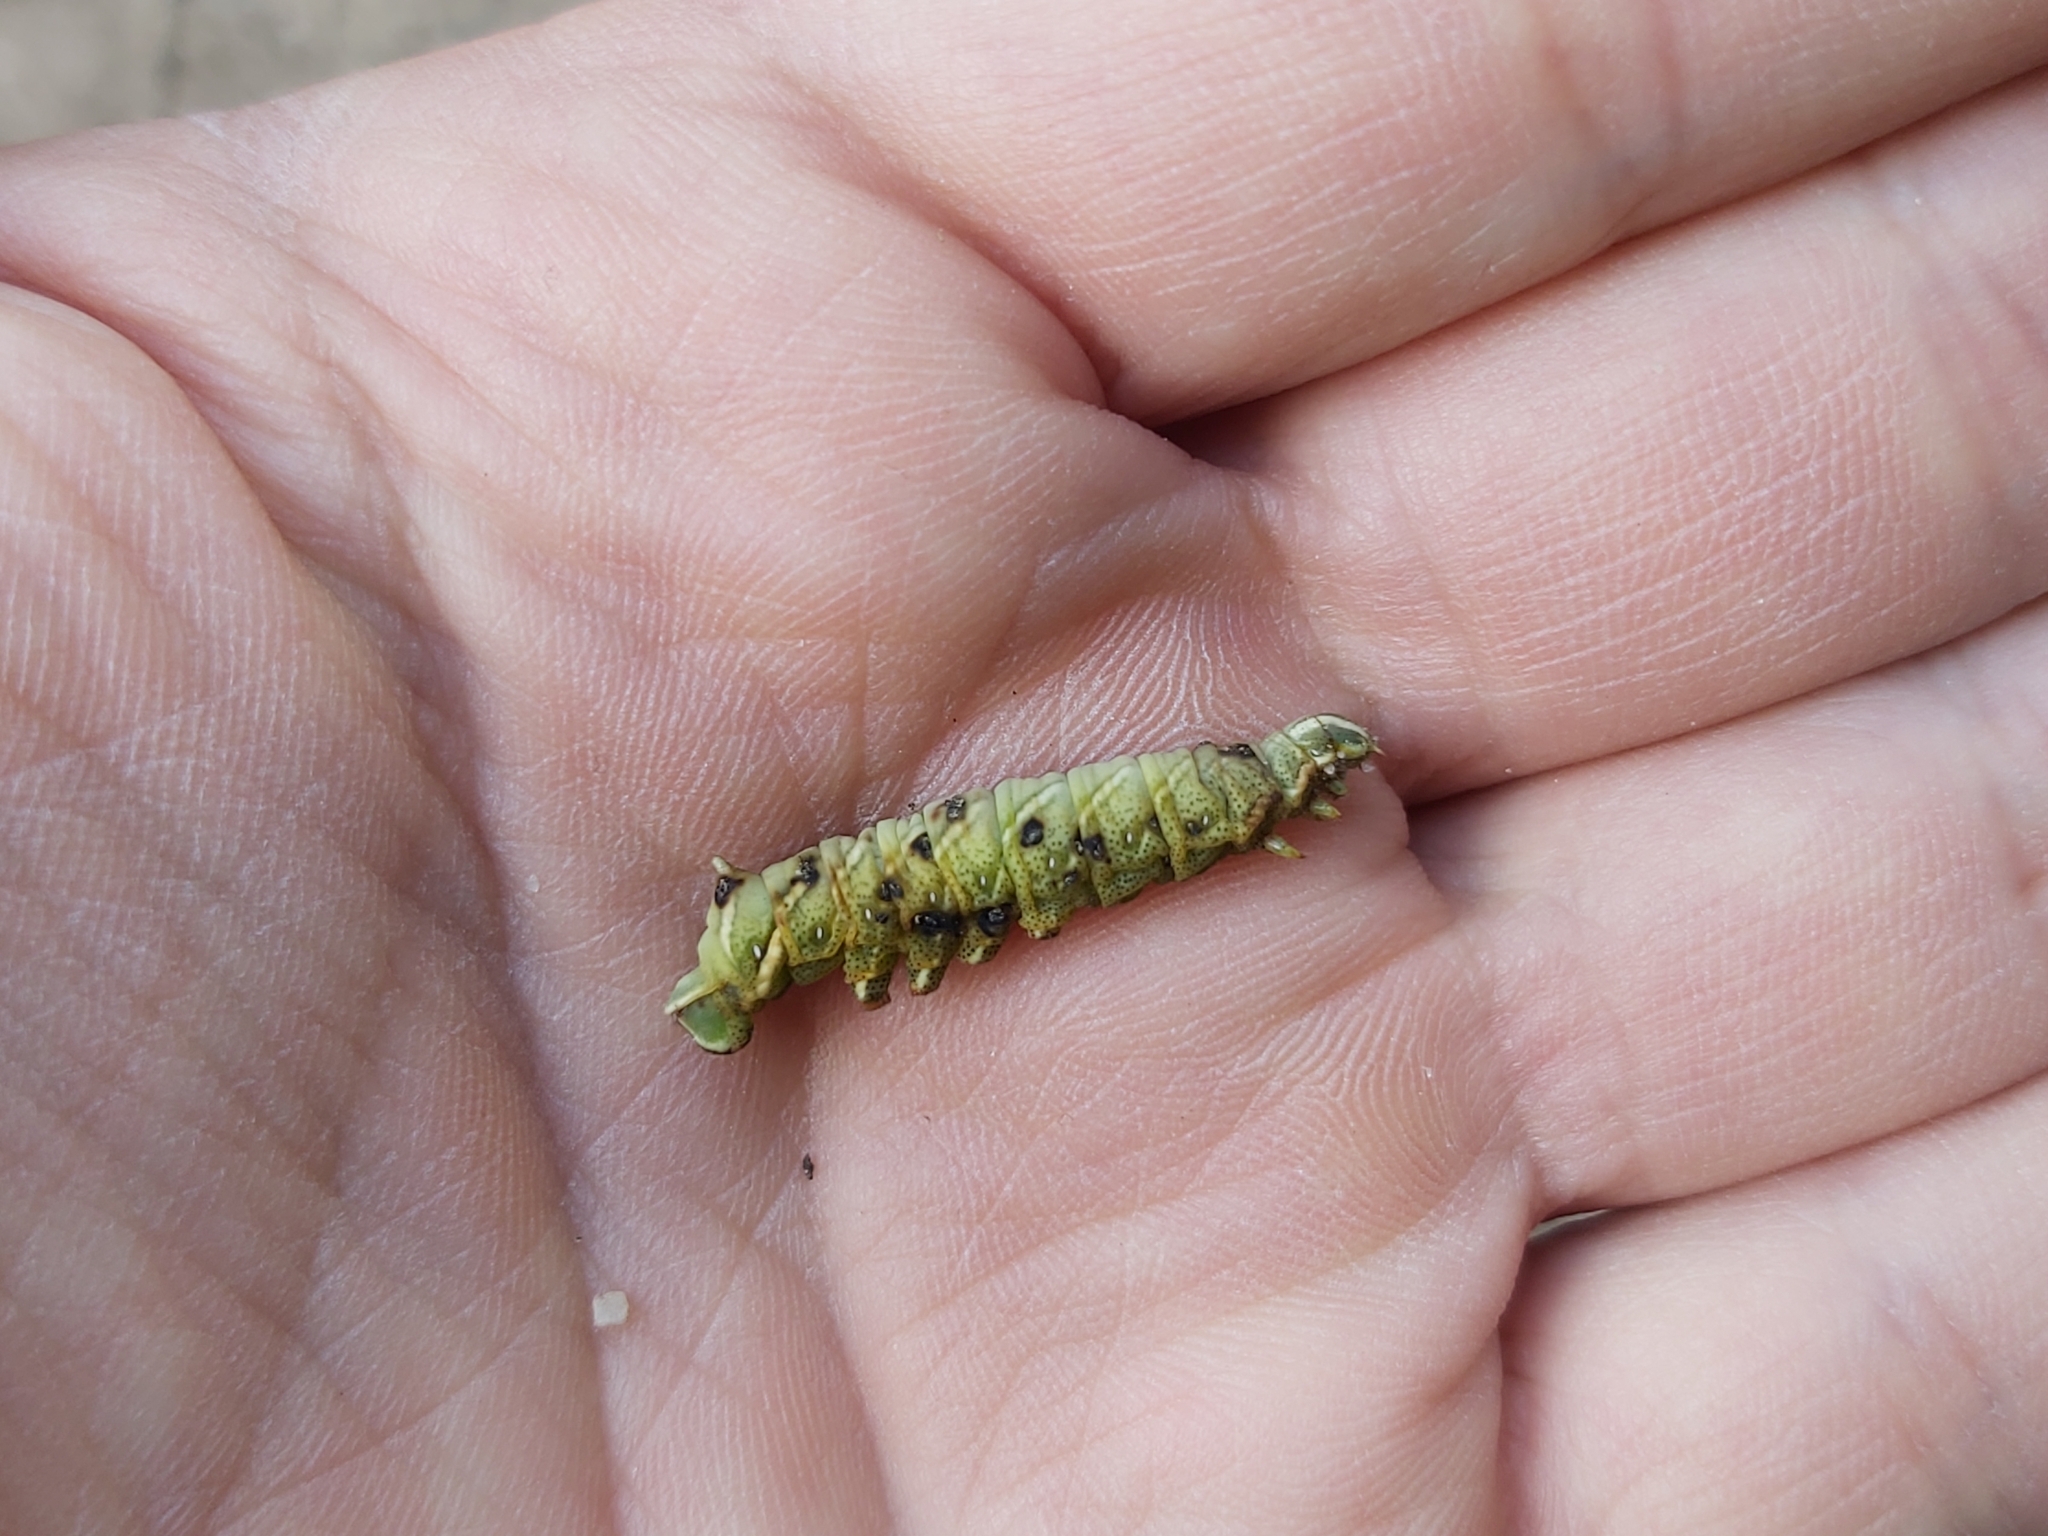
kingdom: Animalia
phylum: Arthropoda
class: Insecta
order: Lepidoptera
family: Endromidae
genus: Endromis
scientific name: Endromis versicolora
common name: Kentish glory
